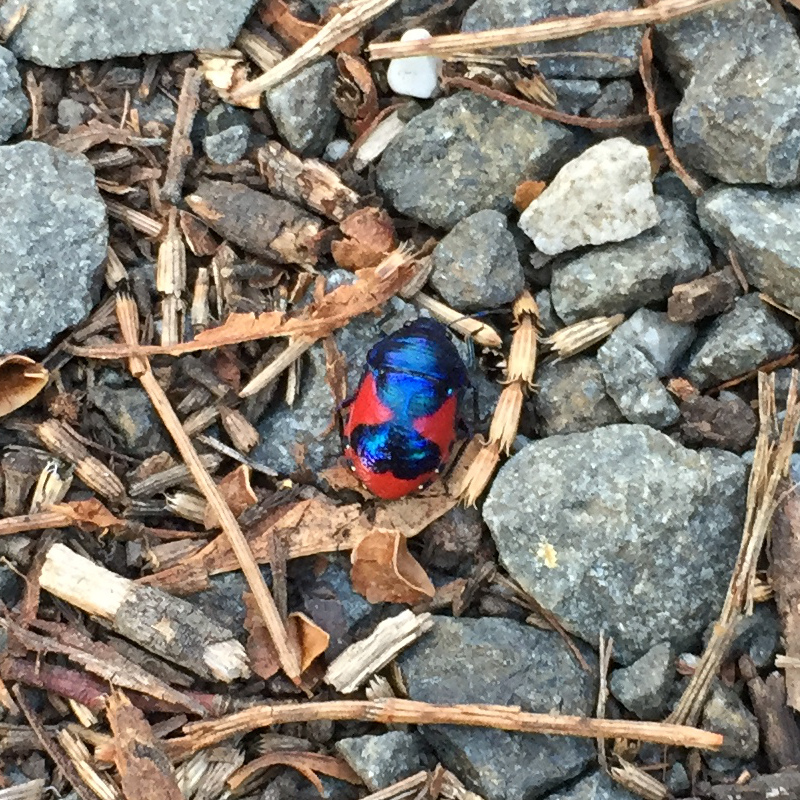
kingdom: Animalia
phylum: Arthropoda
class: Insecta
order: Hemiptera
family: Scutelleridae
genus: Choerocoris
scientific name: Choerocoris paganus
